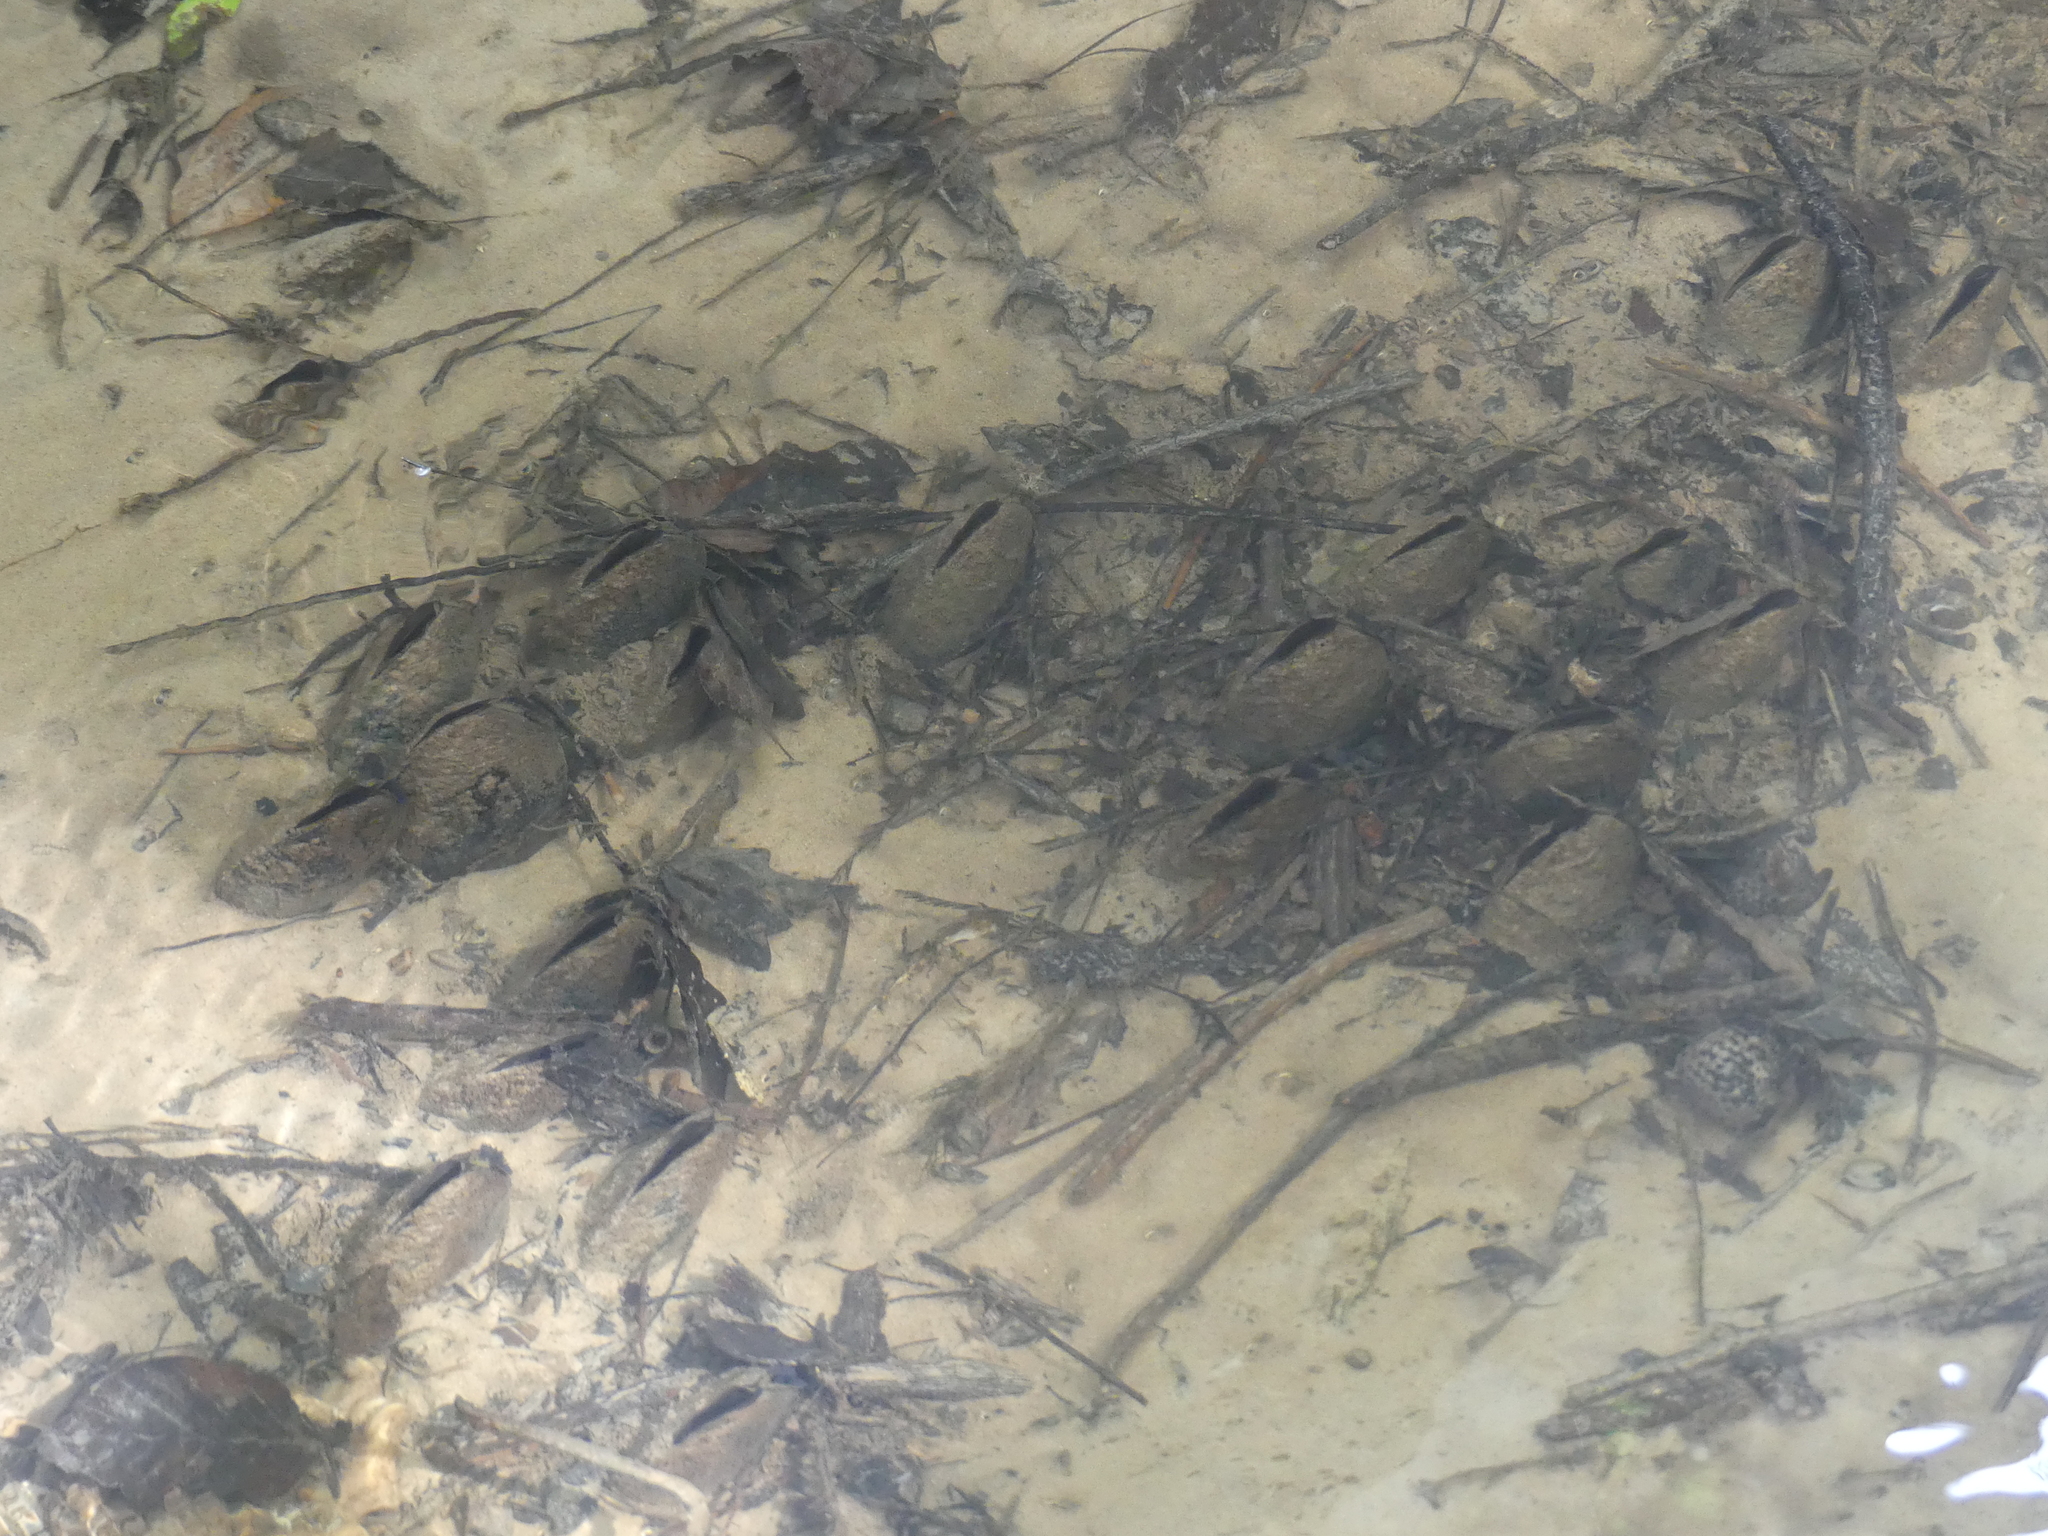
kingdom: Animalia
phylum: Mollusca
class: Bivalvia
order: Unionida
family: Margaritiferidae
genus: Margaritifera
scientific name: Margaritifera hembeli
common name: Louisiana pearlshell
